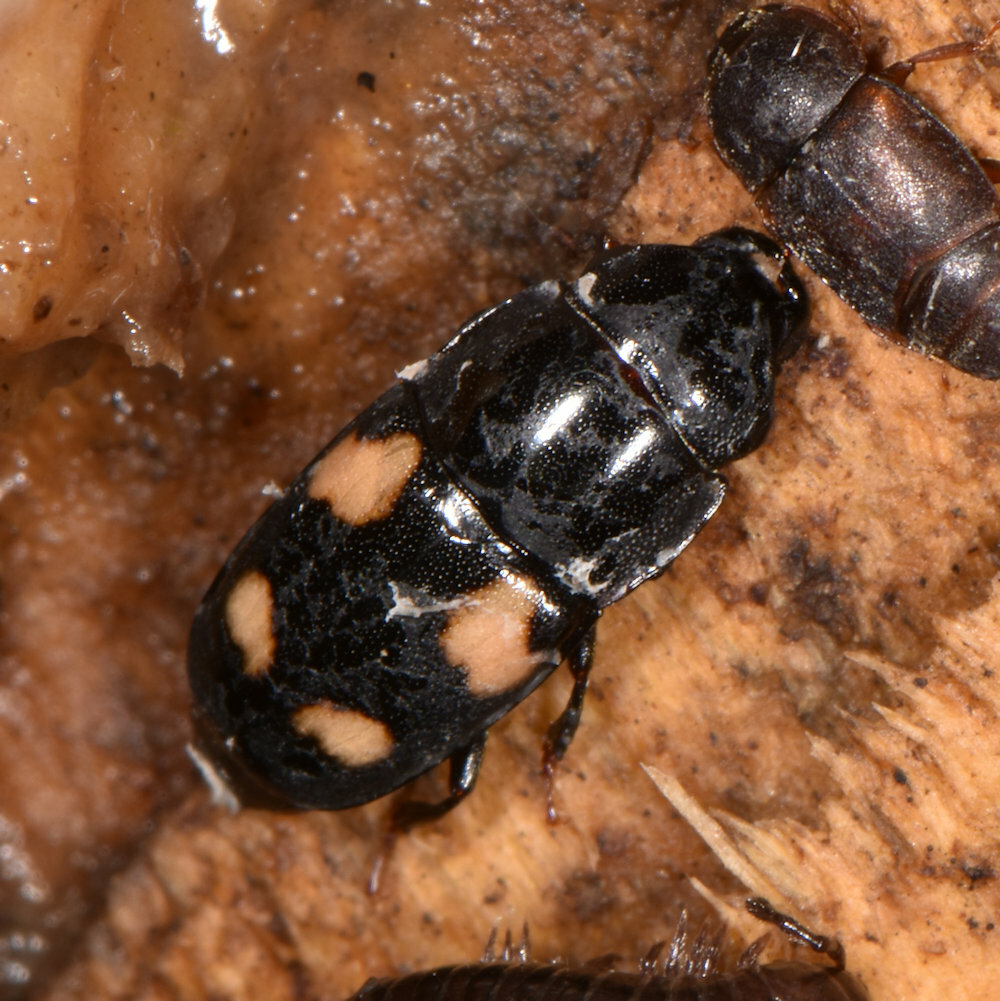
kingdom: Animalia
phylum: Arthropoda
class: Insecta
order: Coleoptera
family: Nitidulidae
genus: Glischrochilus
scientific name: Glischrochilus quadrisignatus
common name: Picnic beetle
